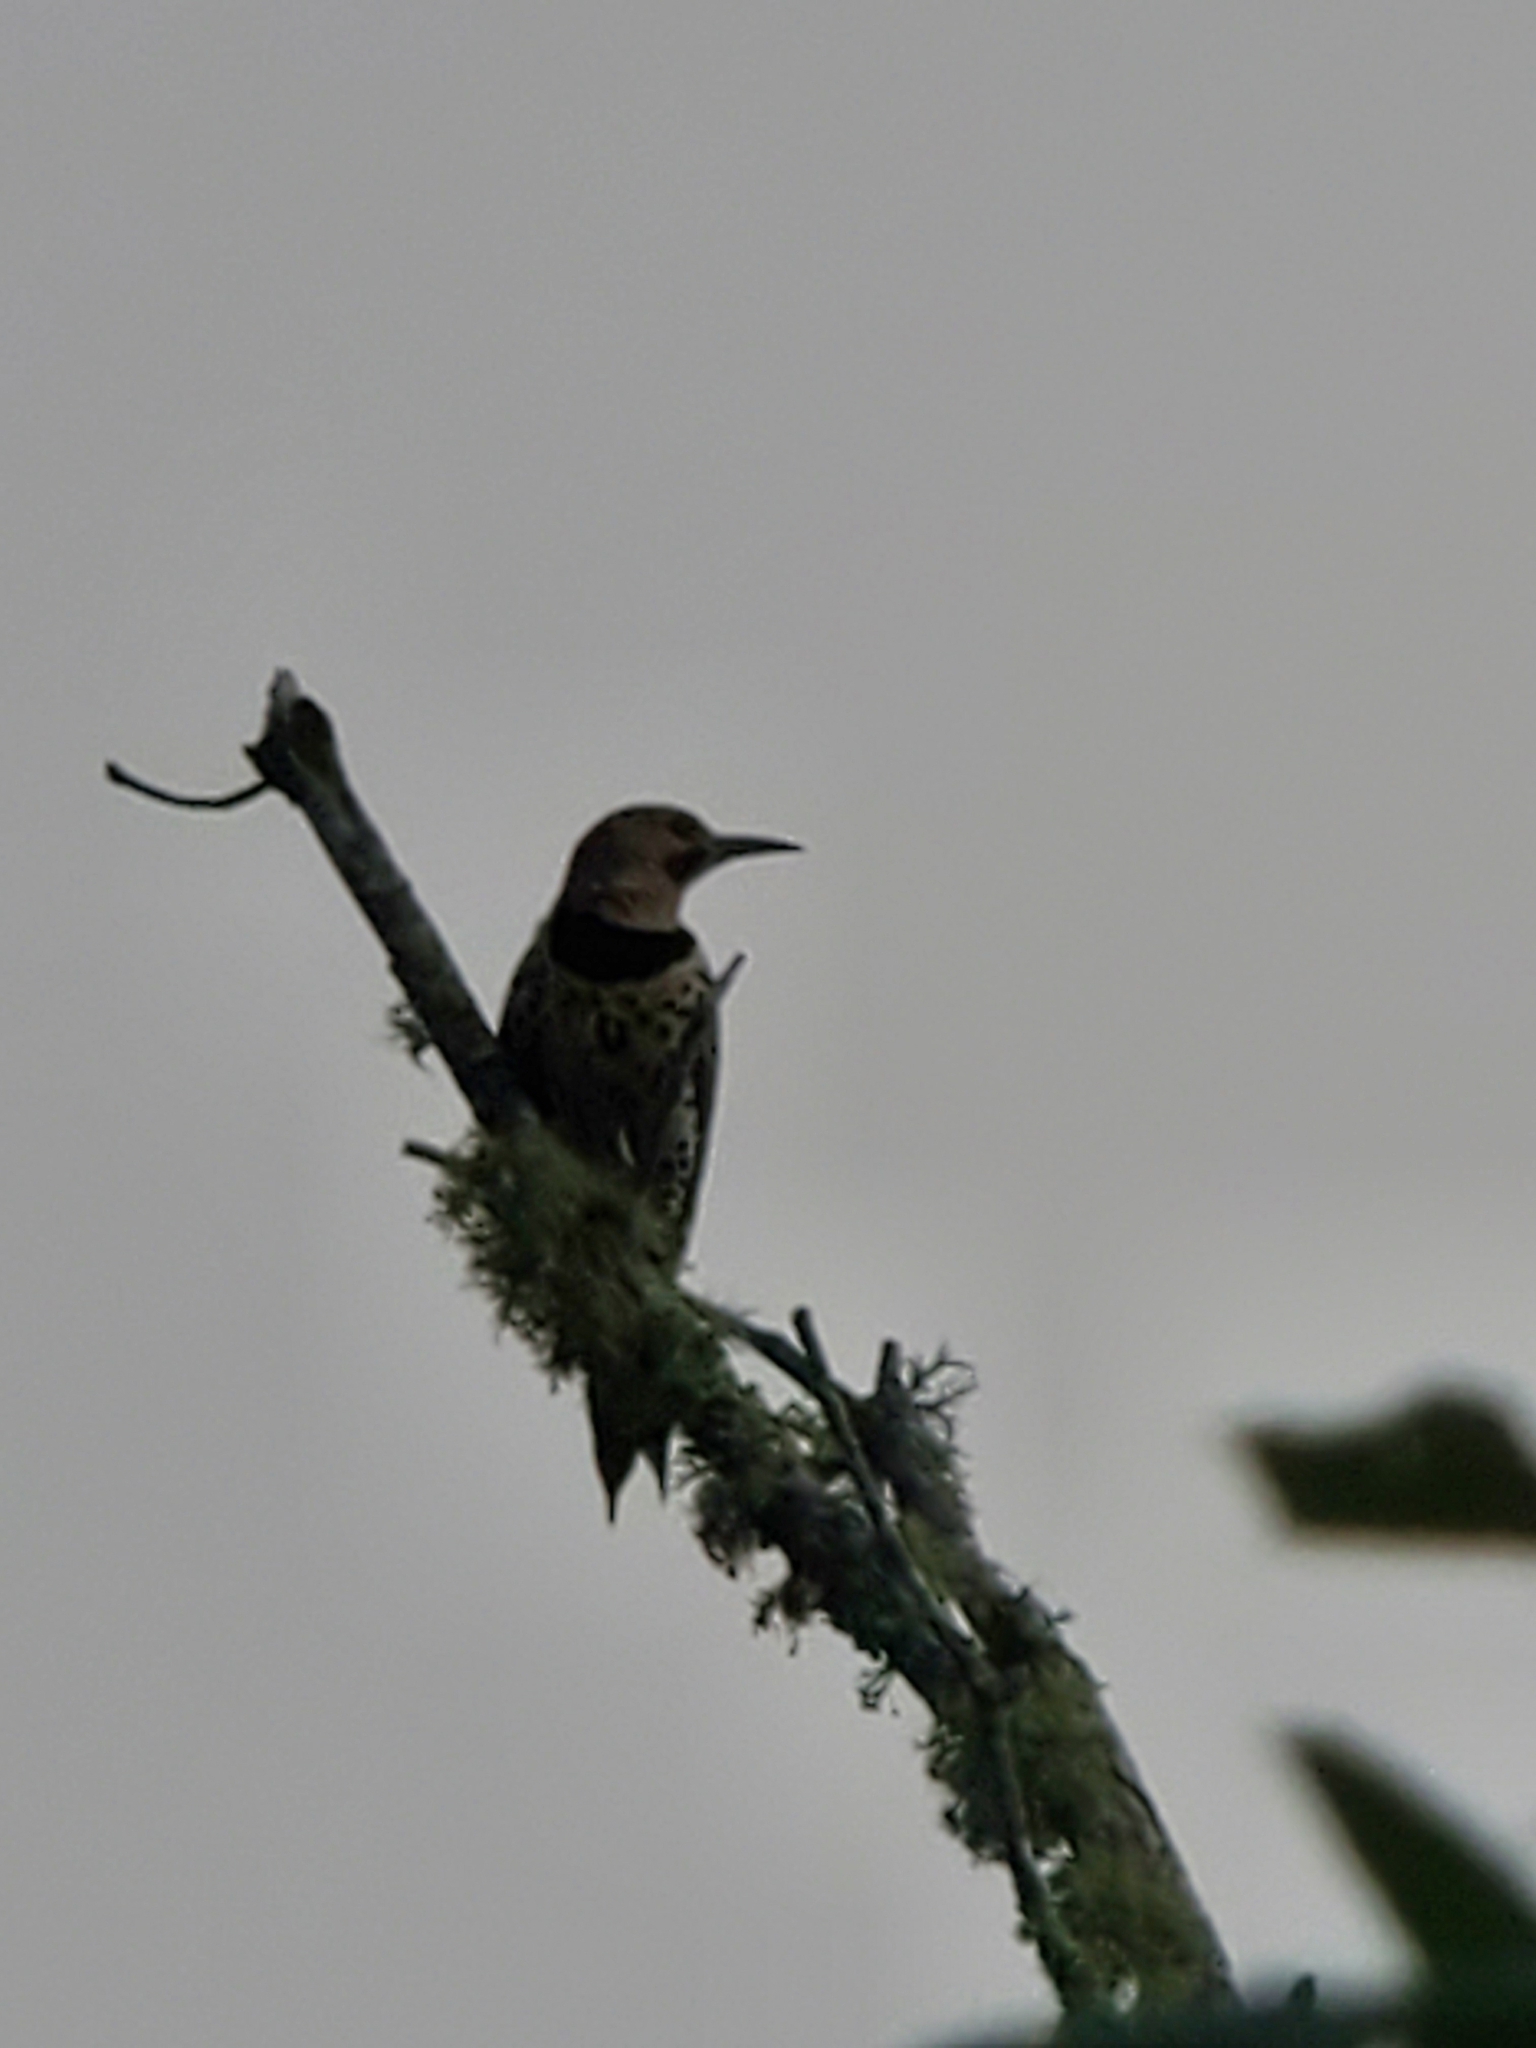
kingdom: Animalia
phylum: Chordata
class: Aves
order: Piciformes
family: Picidae
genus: Colaptes
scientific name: Colaptes auratus
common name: Northern flicker
